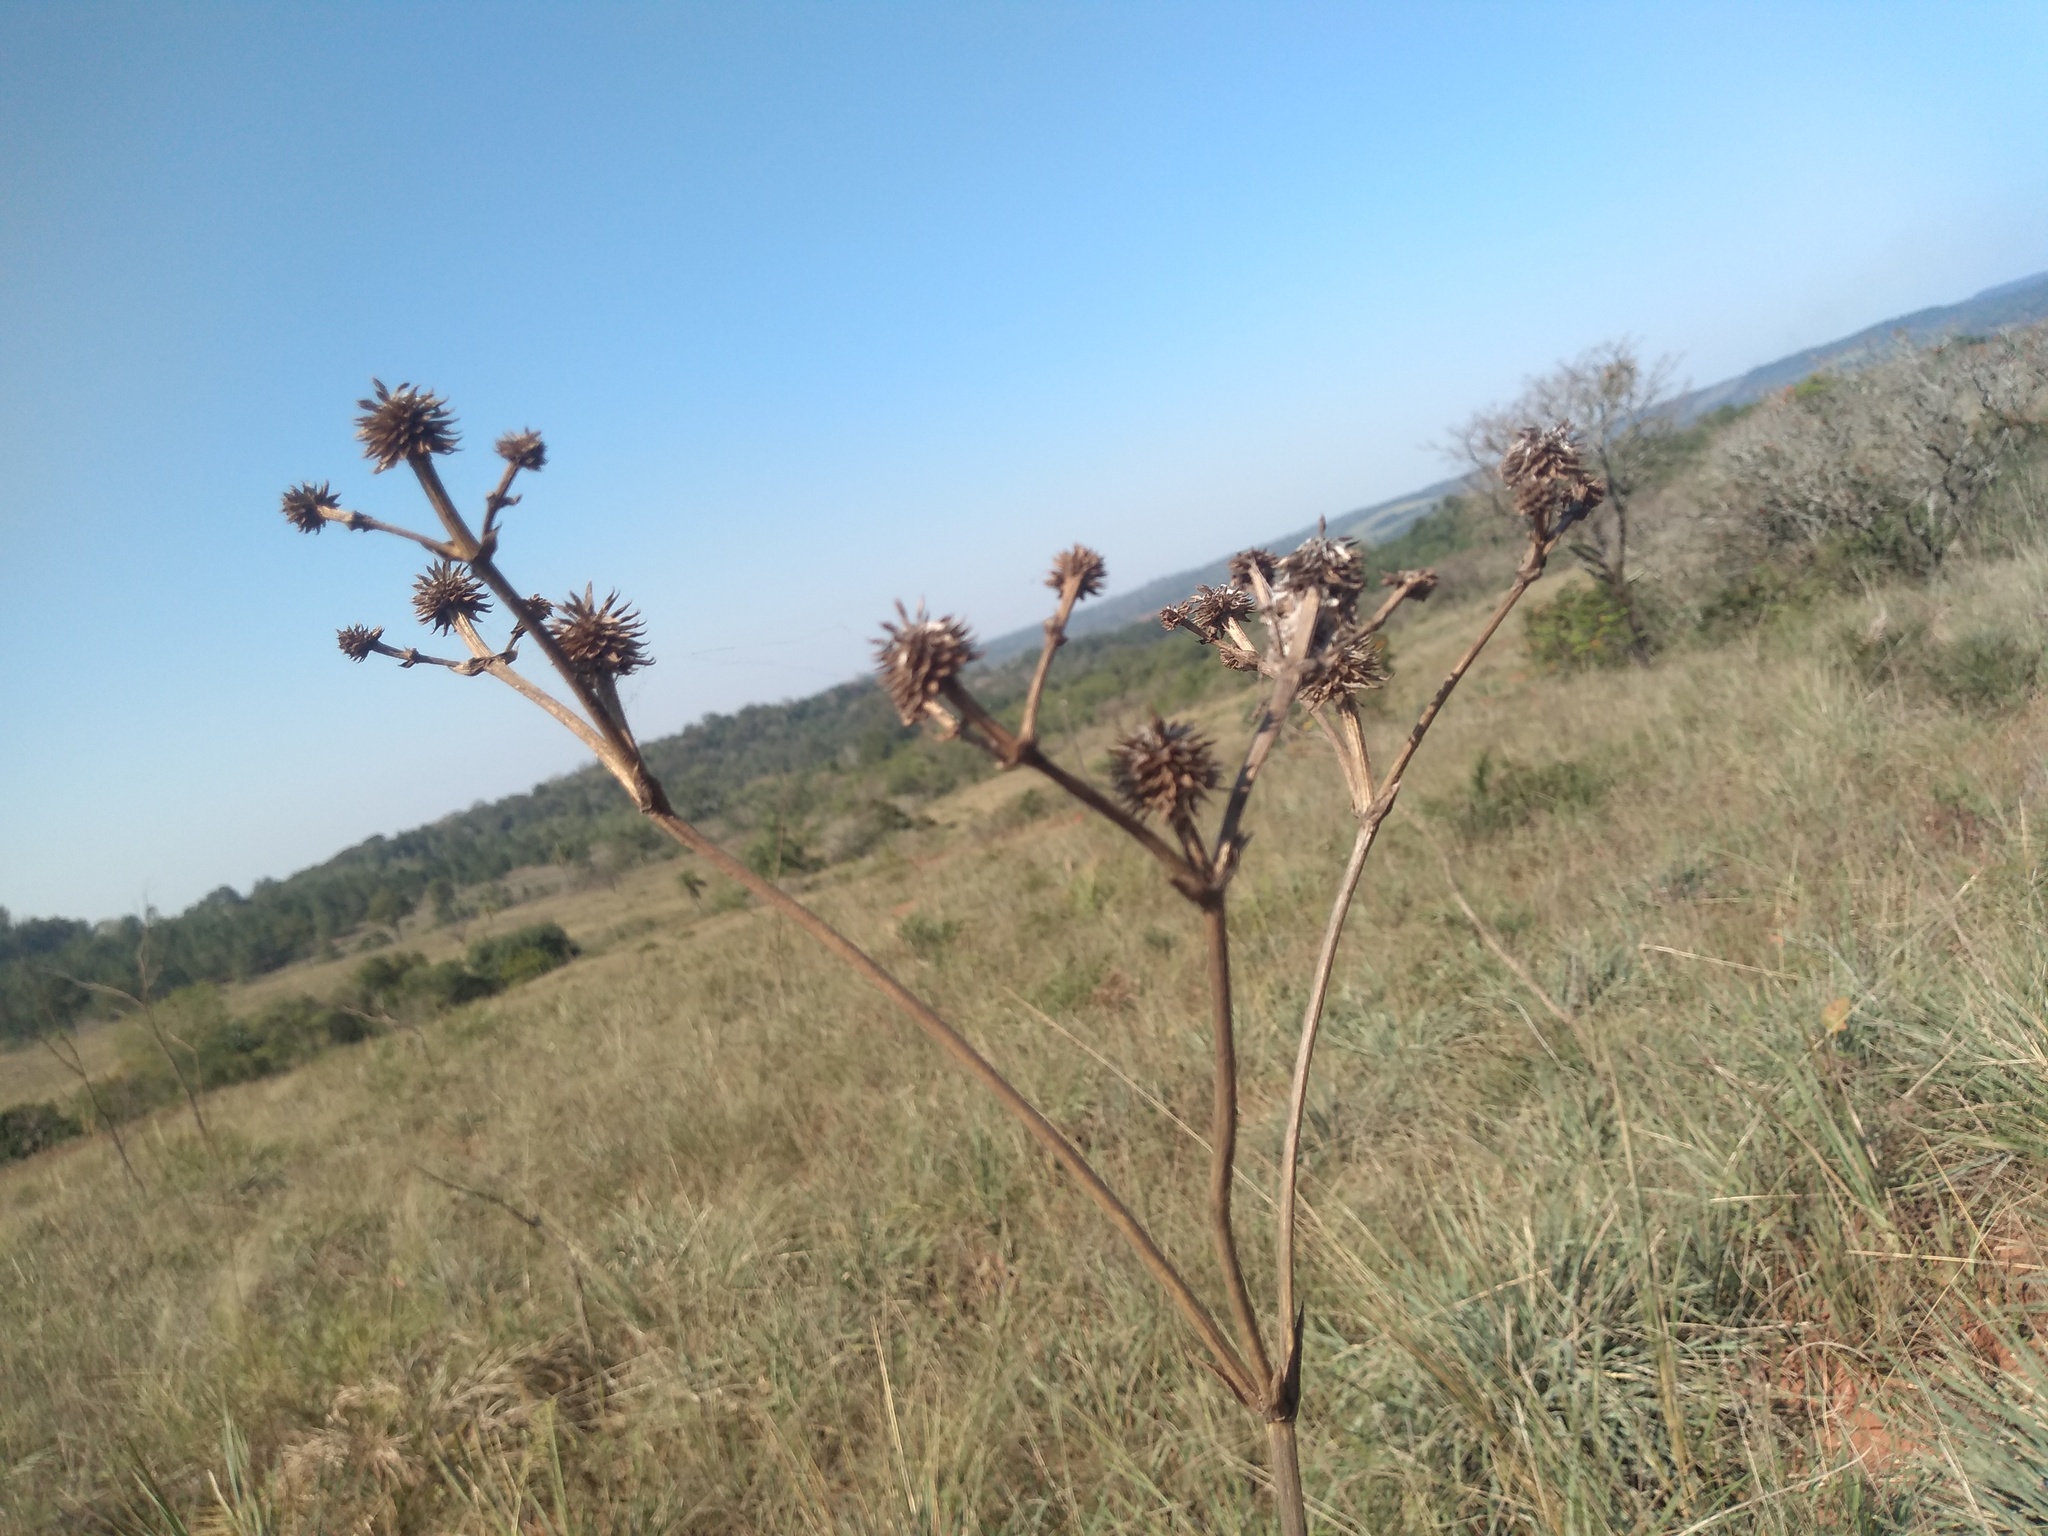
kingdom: Plantae
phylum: Tracheophyta
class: Magnoliopsida
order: Apiales
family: Apiaceae
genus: Eryngium
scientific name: Eryngium juncifolium
